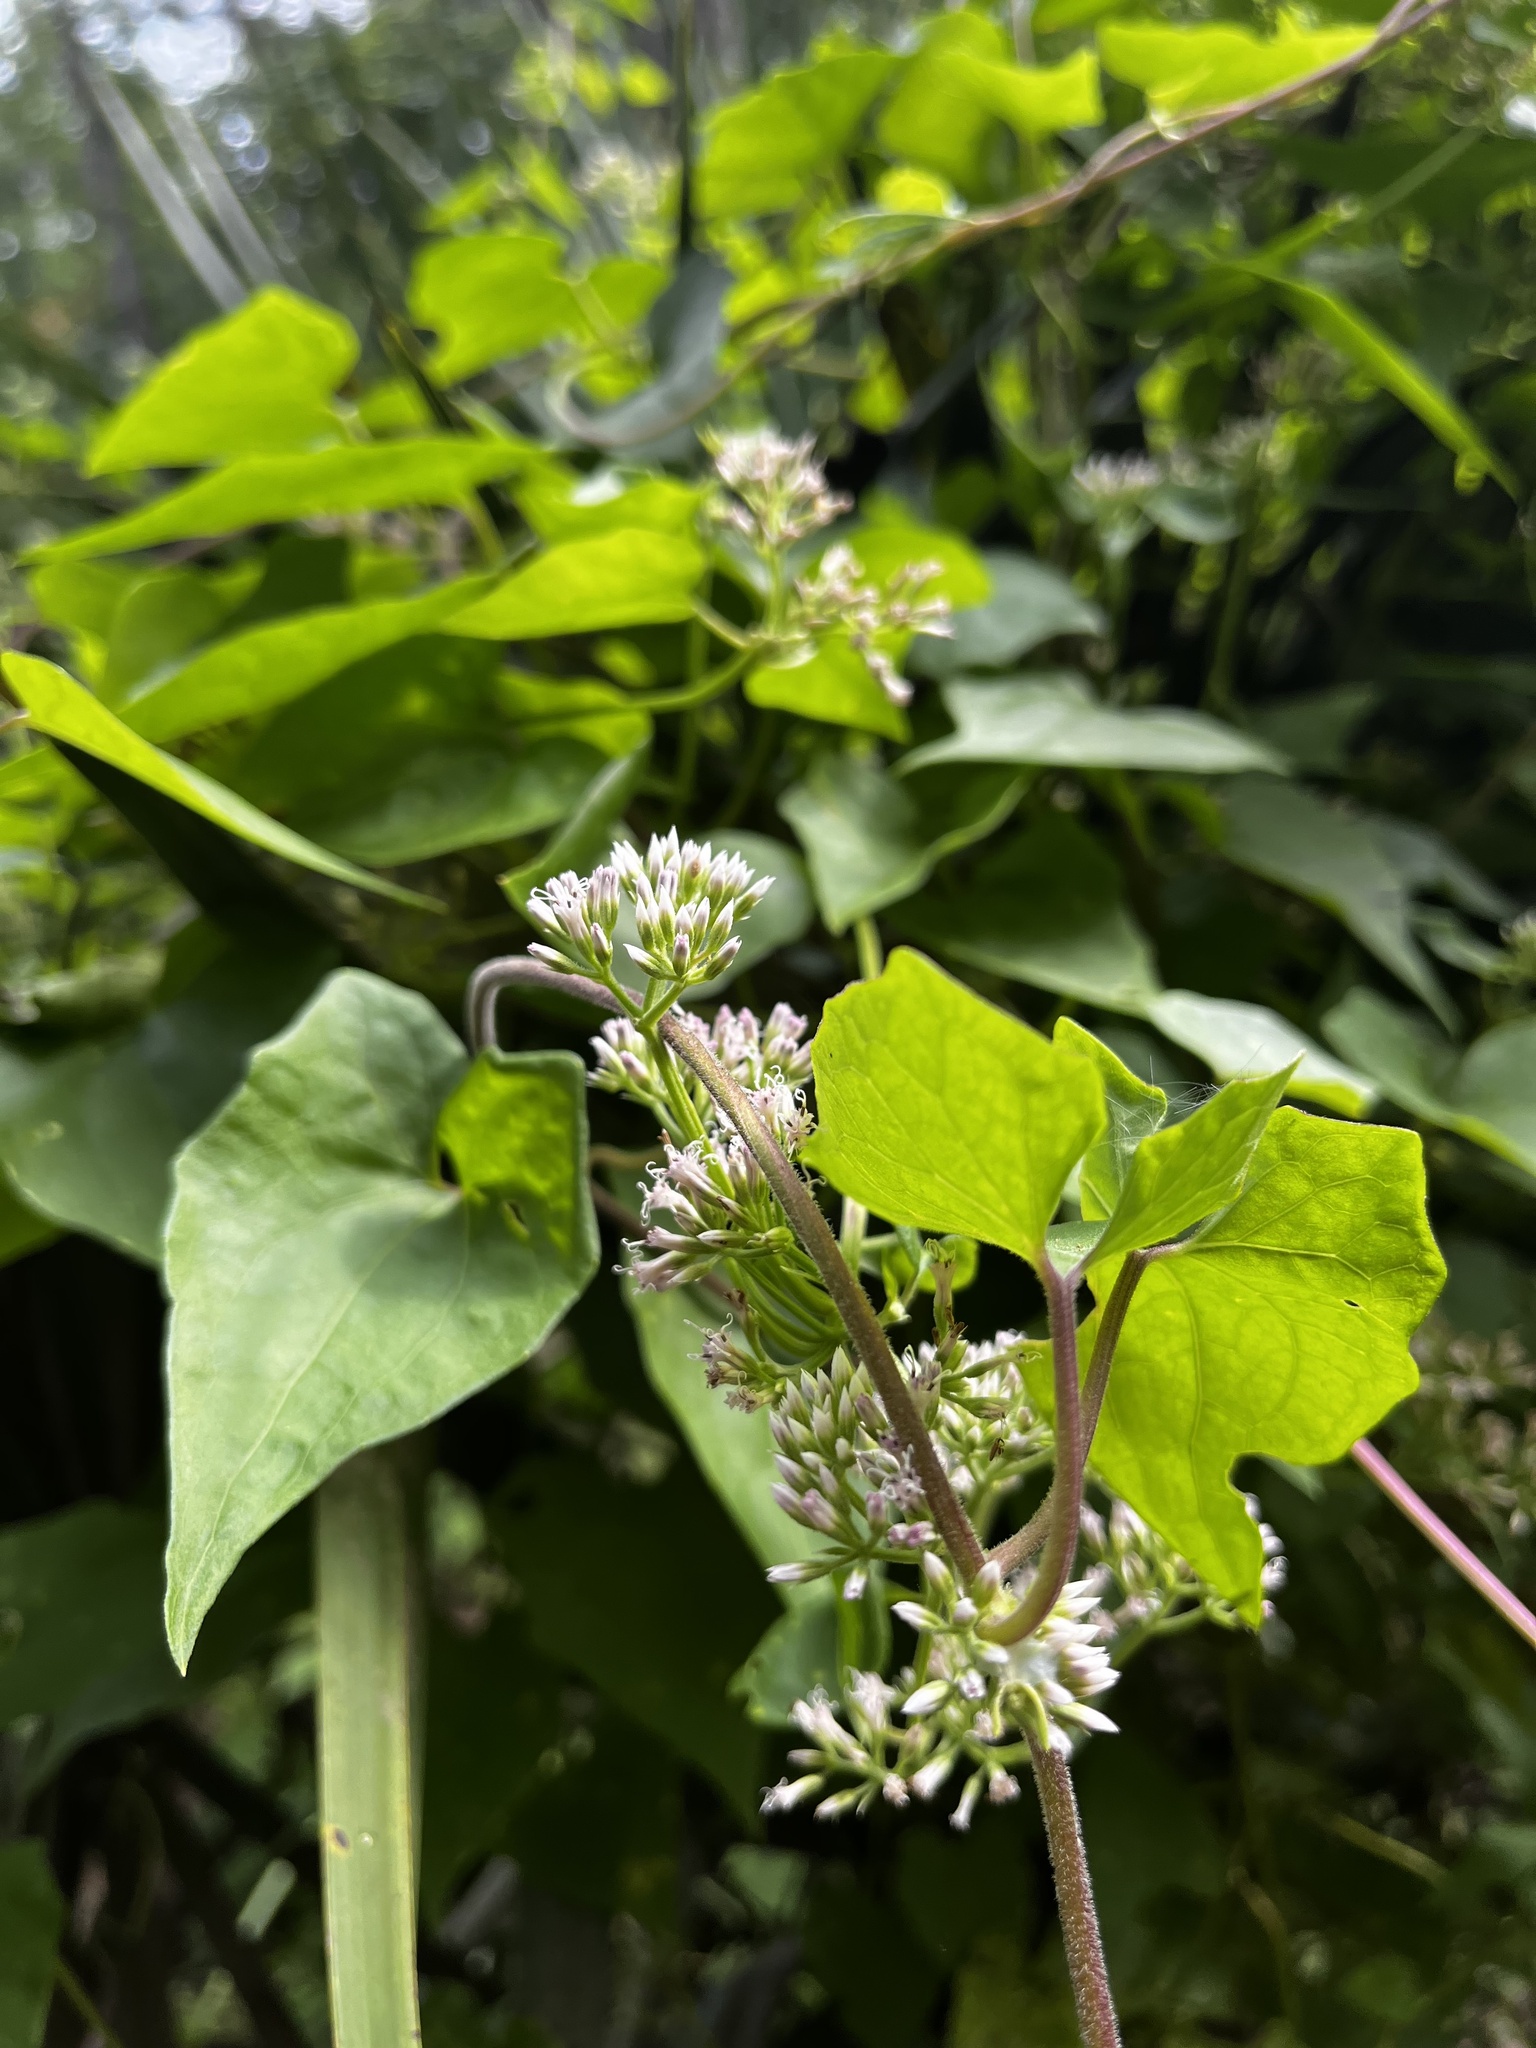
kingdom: Plantae
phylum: Tracheophyta
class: Magnoliopsida
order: Asterales
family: Asteraceae
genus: Mikania
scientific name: Mikania scandens
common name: Climbing hempvine
